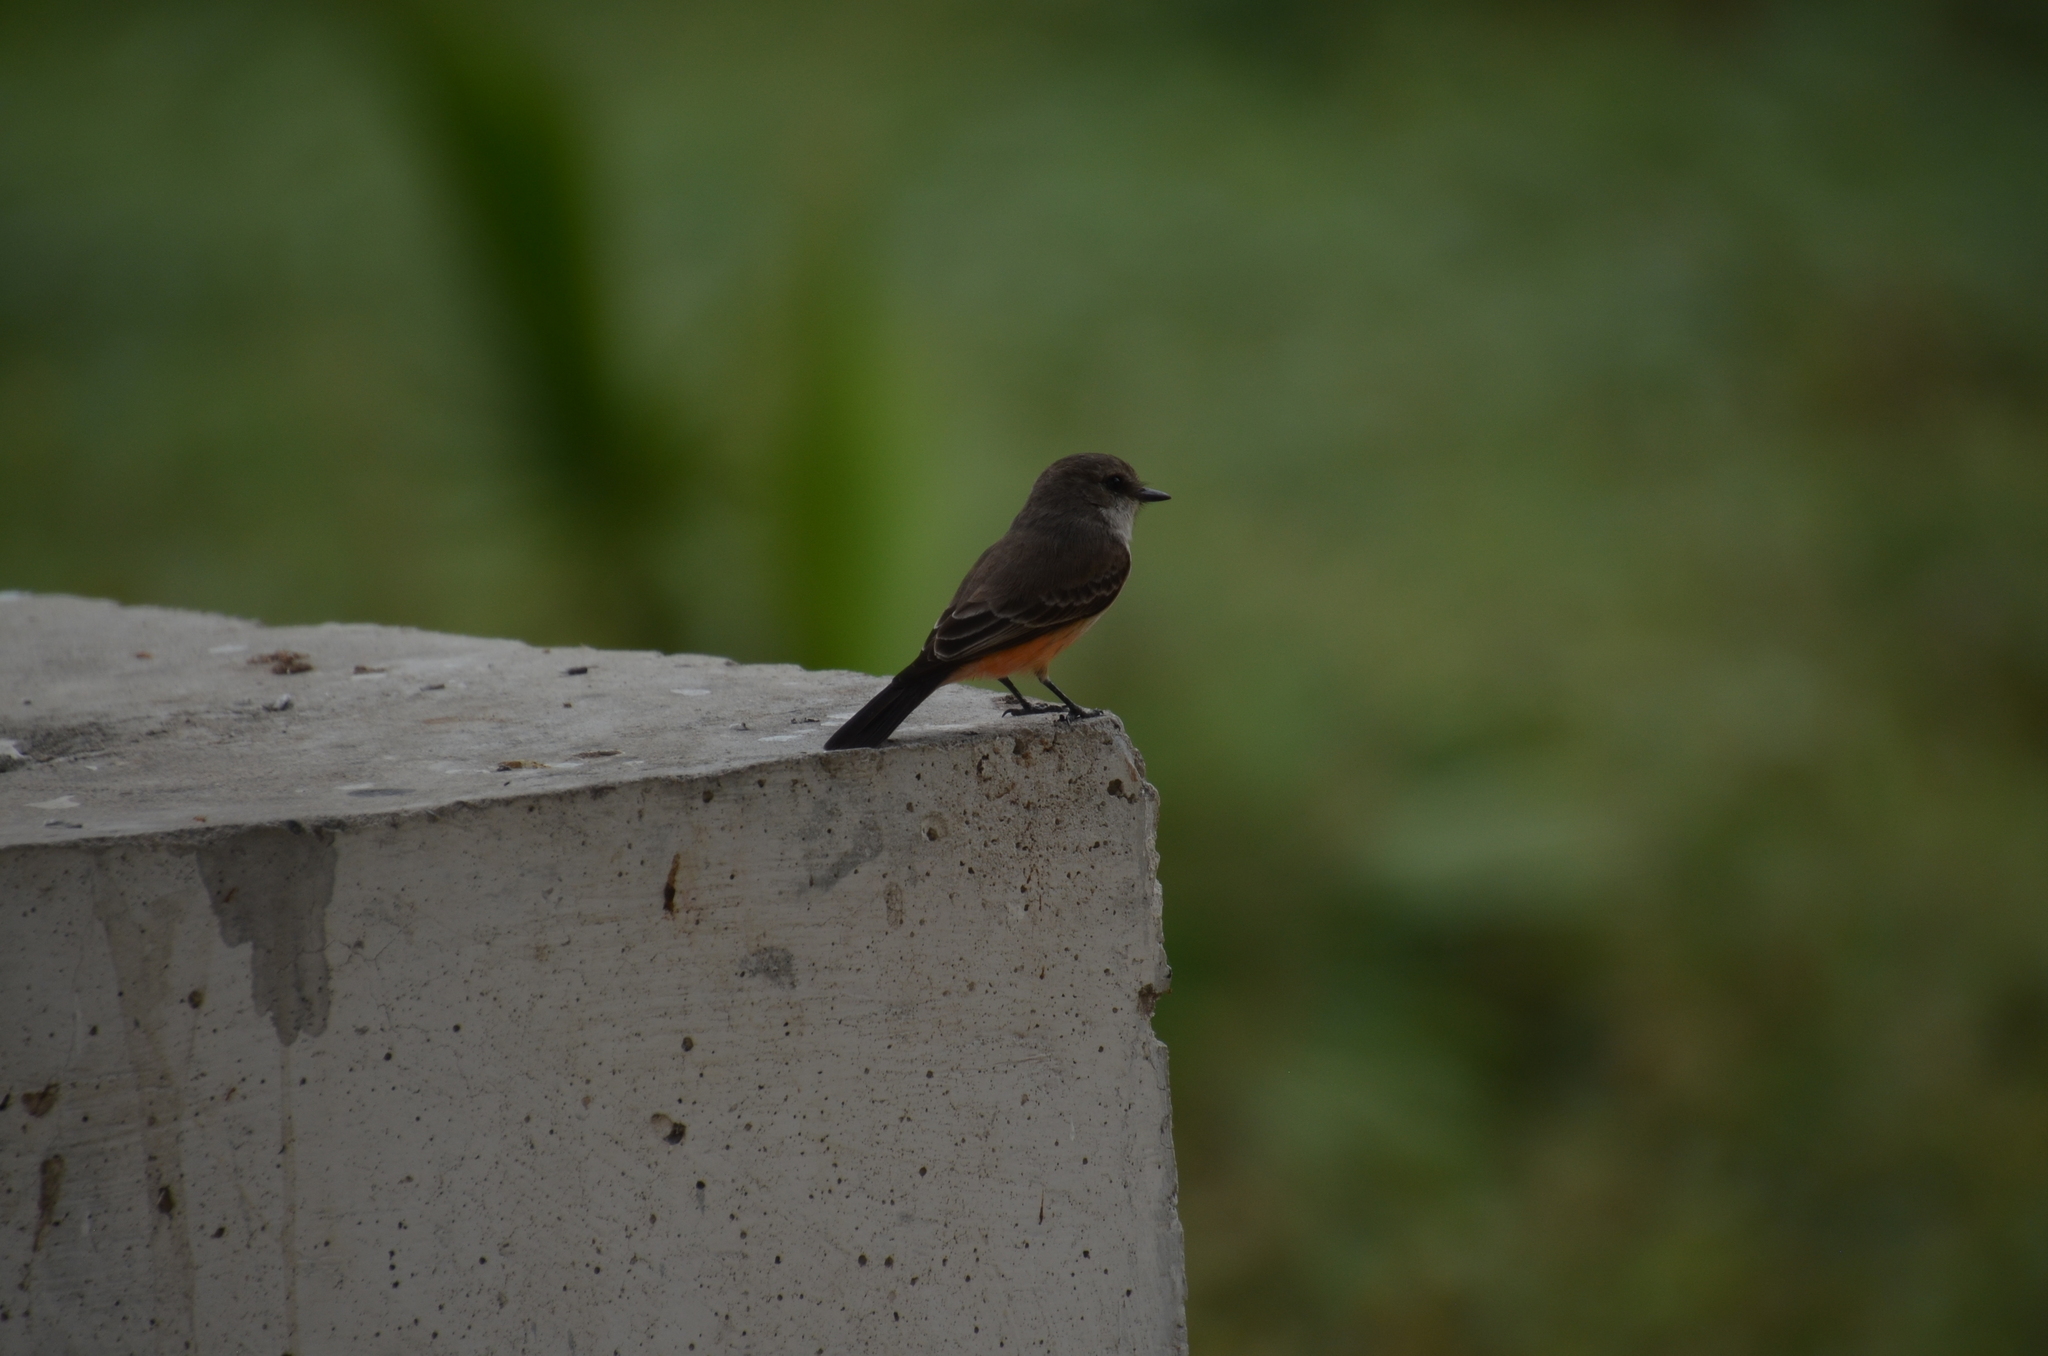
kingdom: Animalia
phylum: Chordata
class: Aves
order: Passeriformes
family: Tyrannidae
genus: Pyrocephalus
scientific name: Pyrocephalus rubinus
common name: Vermilion flycatcher
